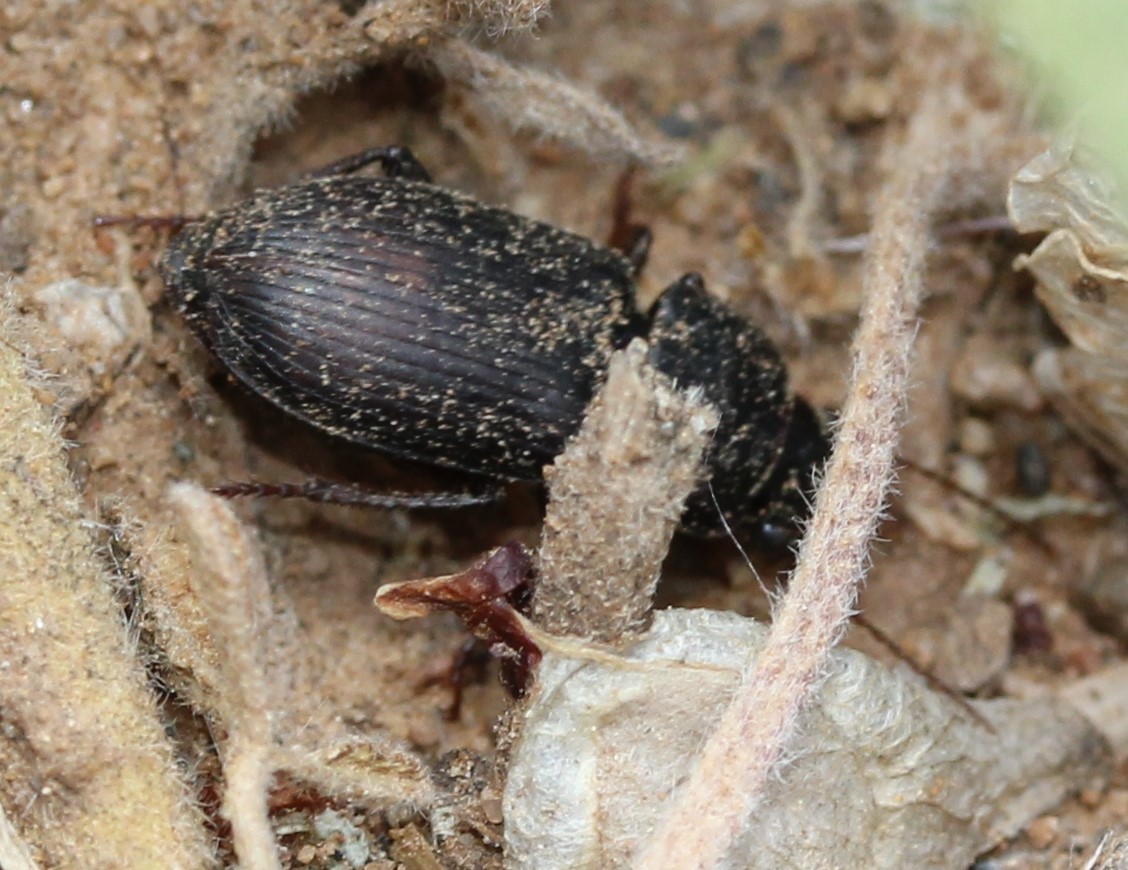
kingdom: Animalia
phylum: Arthropoda
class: Insecta
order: Coleoptera
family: Carabidae
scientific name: Carabidae
